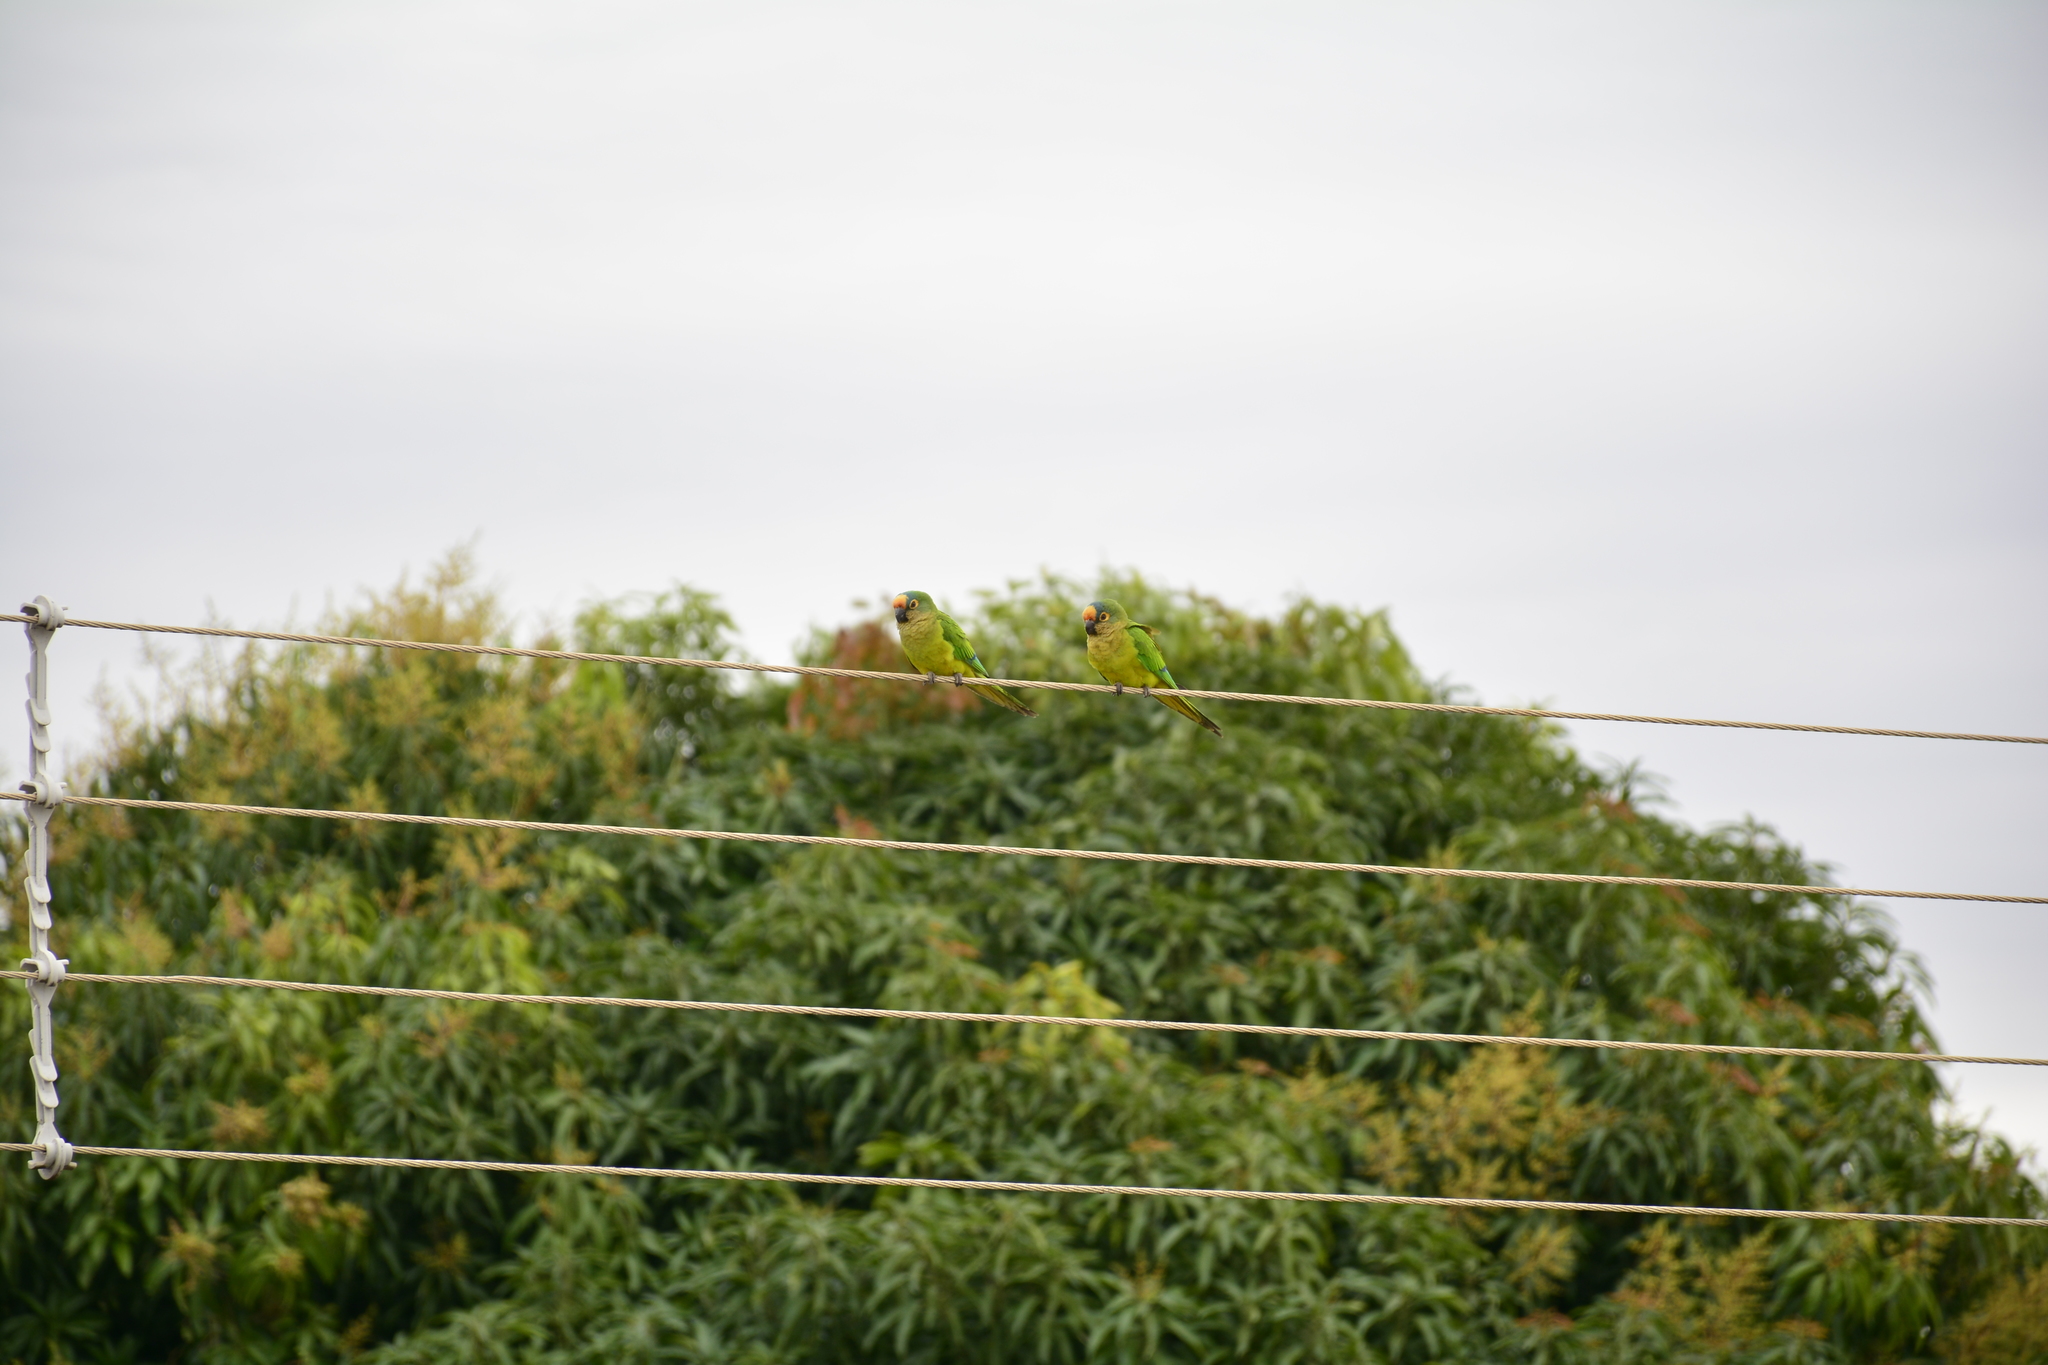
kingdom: Animalia
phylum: Chordata
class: Aves
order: Psittaciformes
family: Psittacidae
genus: Aratinga
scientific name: Aratinga aurea
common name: Peach-fronted parakeet
